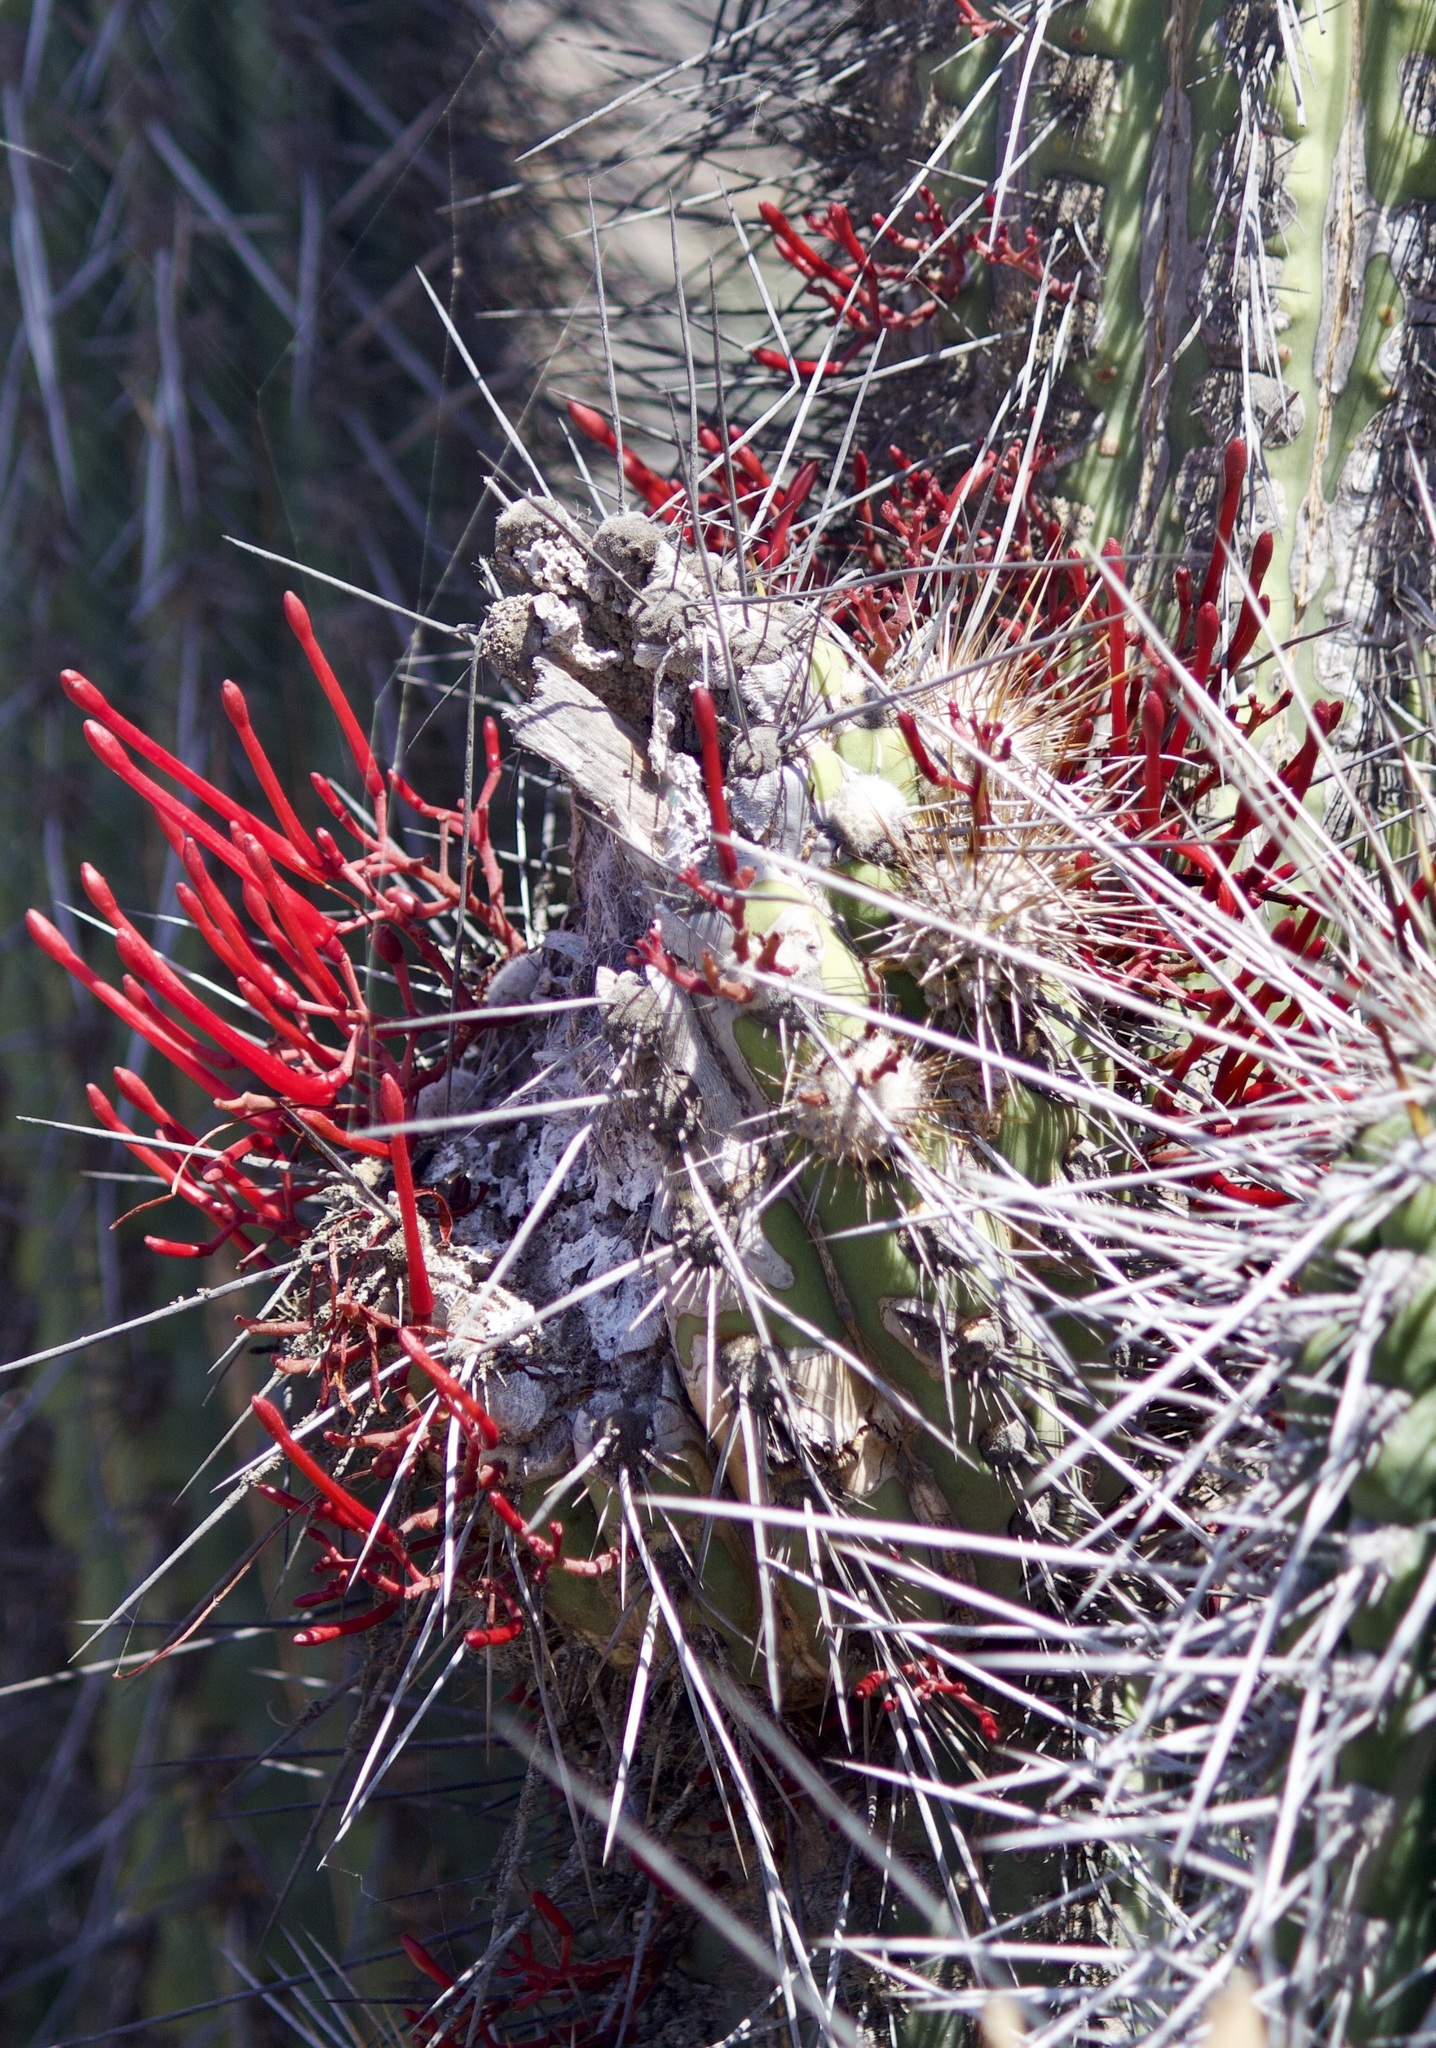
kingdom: Plantae
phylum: Tracheophyta
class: Magnoliopsida
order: Santalales
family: Loranthaceae
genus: Tristerix
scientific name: Tristerix aphyllus
